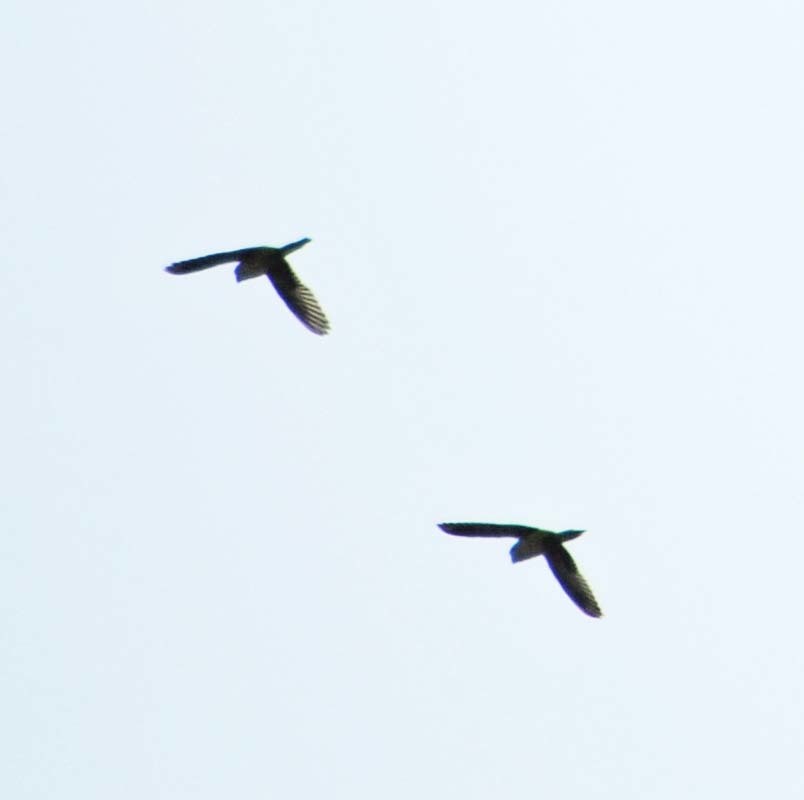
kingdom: Animalia
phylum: Chordata
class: Aves
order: Psittaciformes
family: Psittacidae
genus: Myiopsitta
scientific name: Myiopsitta monachus
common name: Monk parakeet
